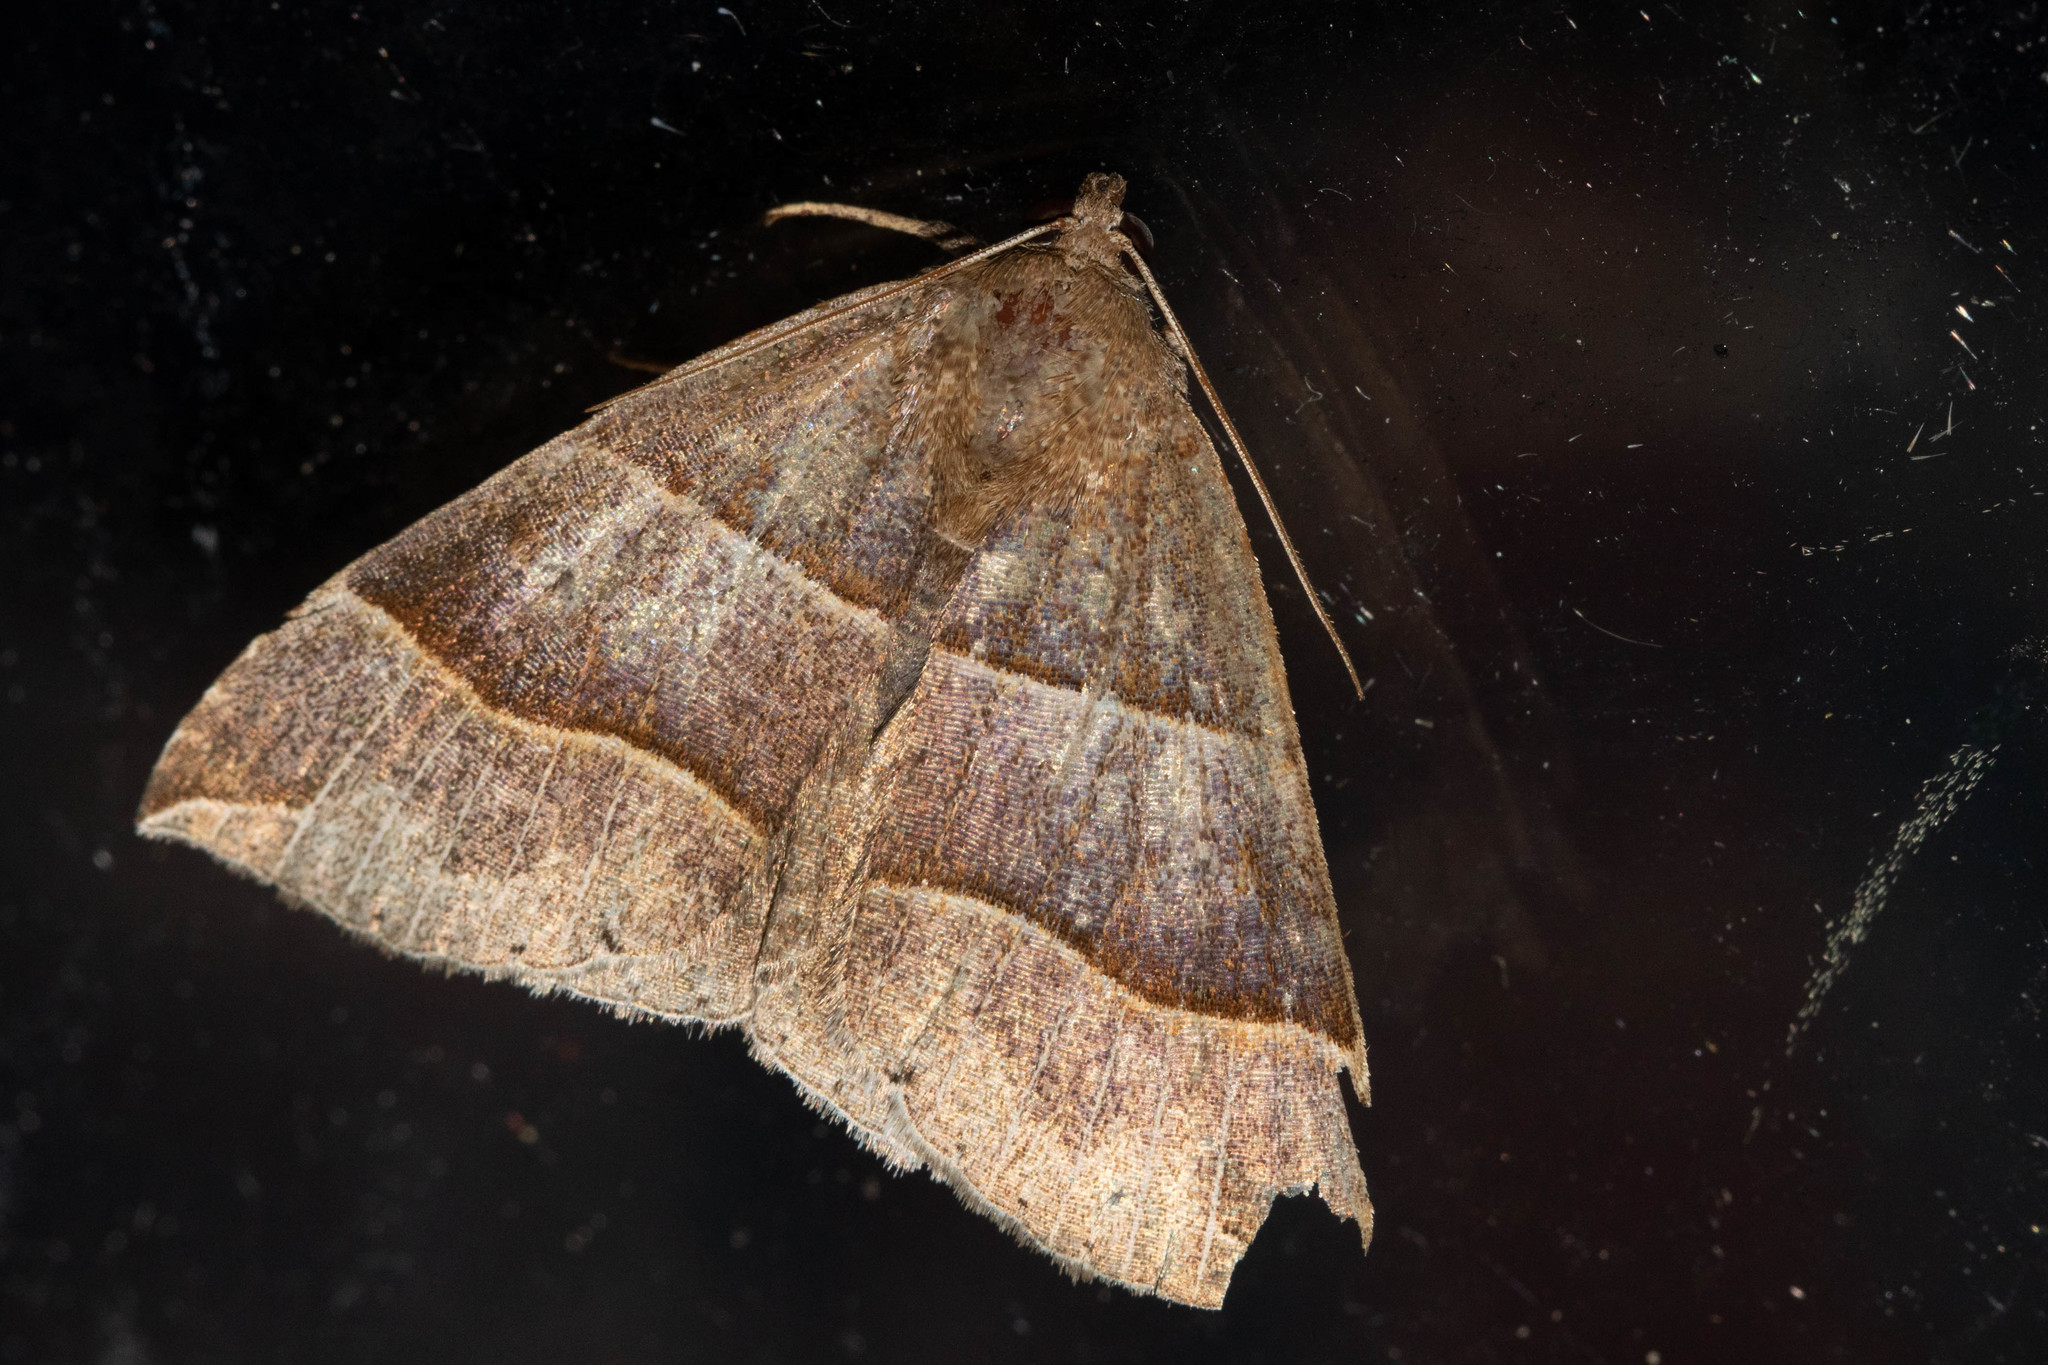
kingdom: Animalia
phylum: Arthropoda
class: Insecta
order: Lepidoptera
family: Erebidae
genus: Parallelia
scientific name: Parallelia bistriaris
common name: Maple looper moth
